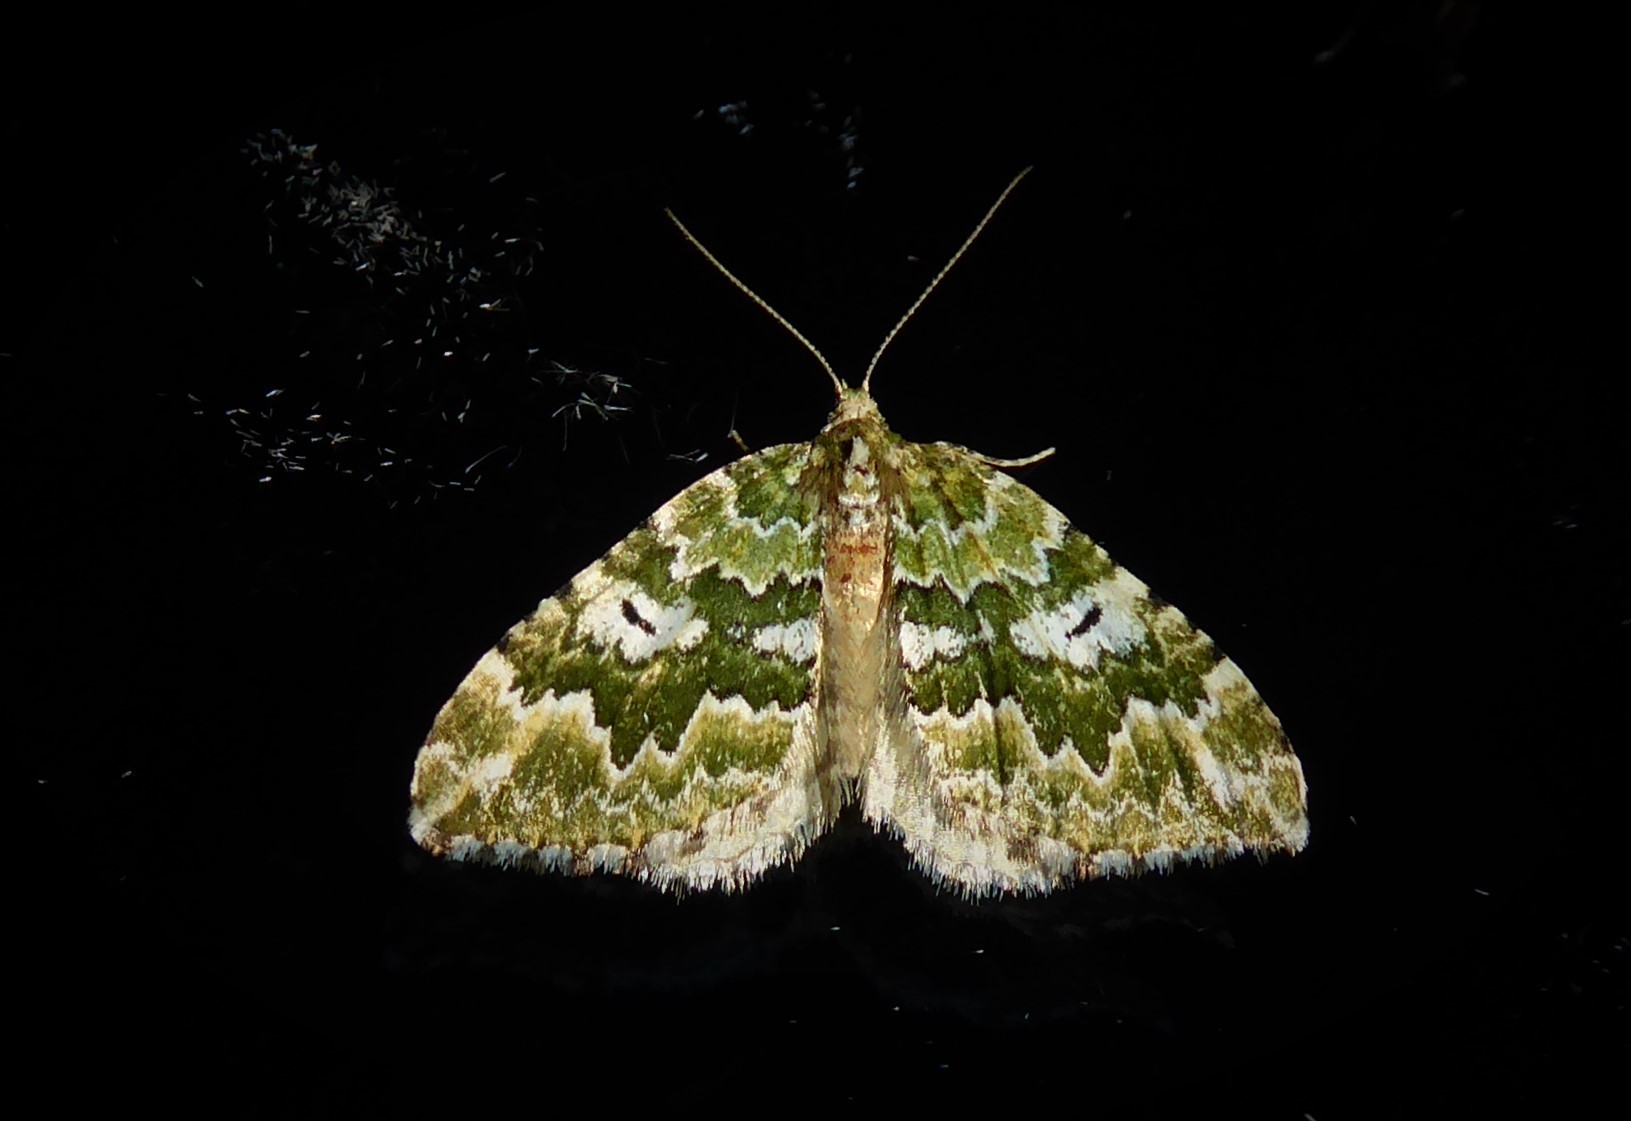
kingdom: Animalia
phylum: Arthropoda
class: Insecta
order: Lepidoptera
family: Geometridae
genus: Asaphodes
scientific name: Asaphodes beata
